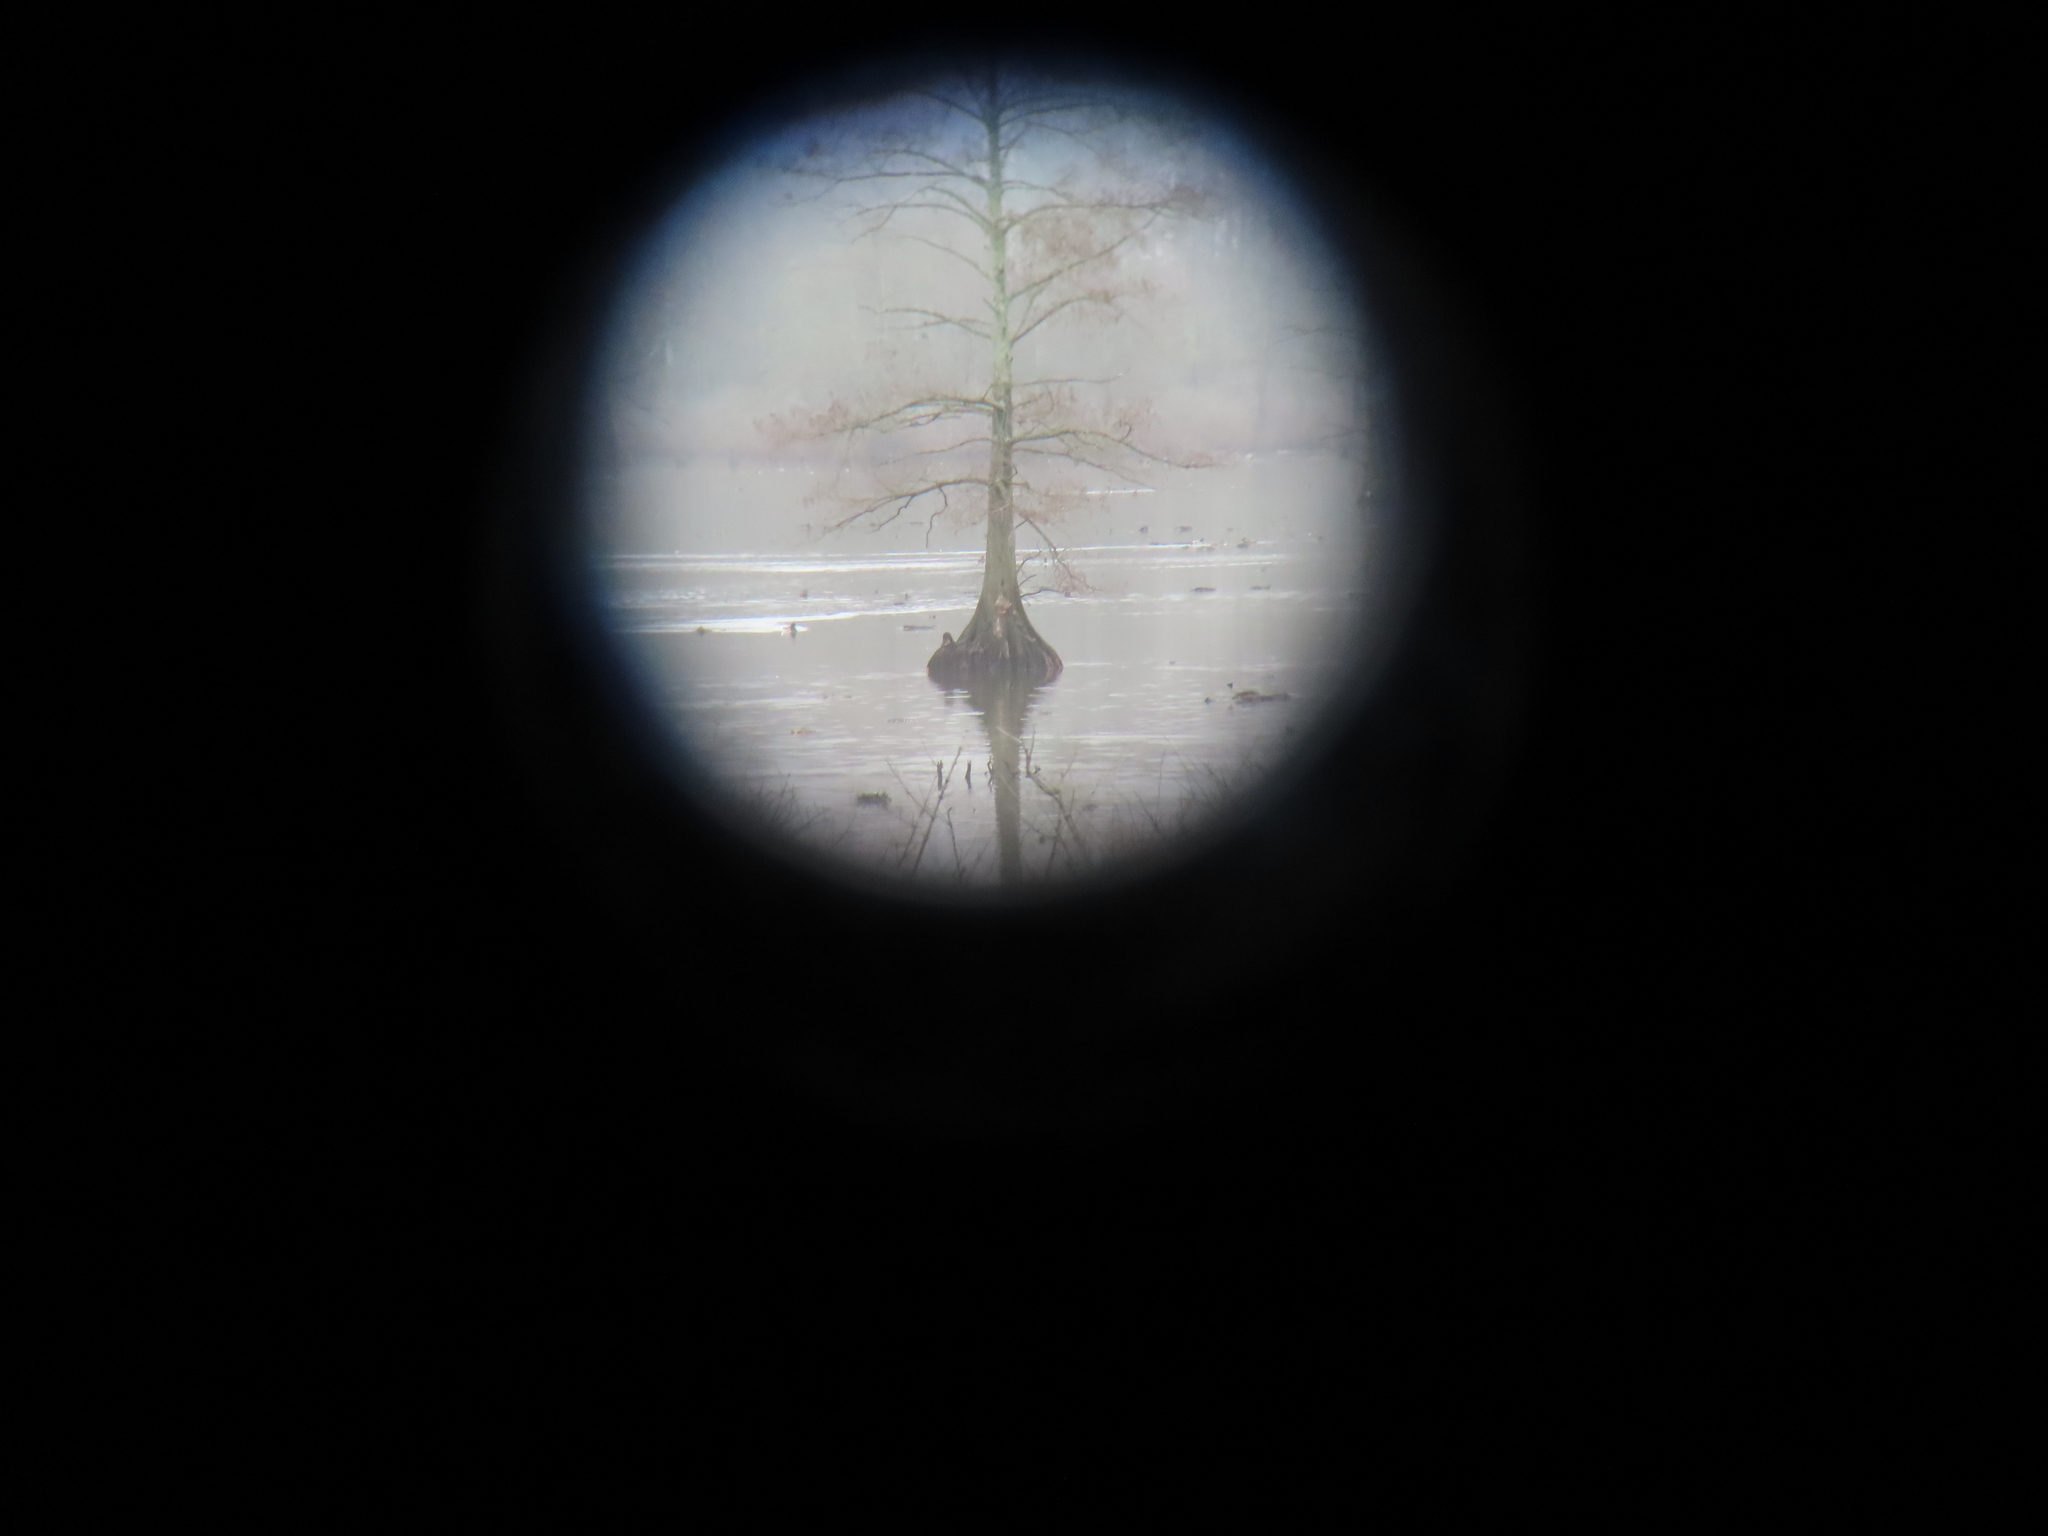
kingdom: Plantae
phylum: Tracheophyta
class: Pinopsida
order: Pinales
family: Cupressaceae
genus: Taxodium
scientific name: Taxodium distichum
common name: Bald cypress
